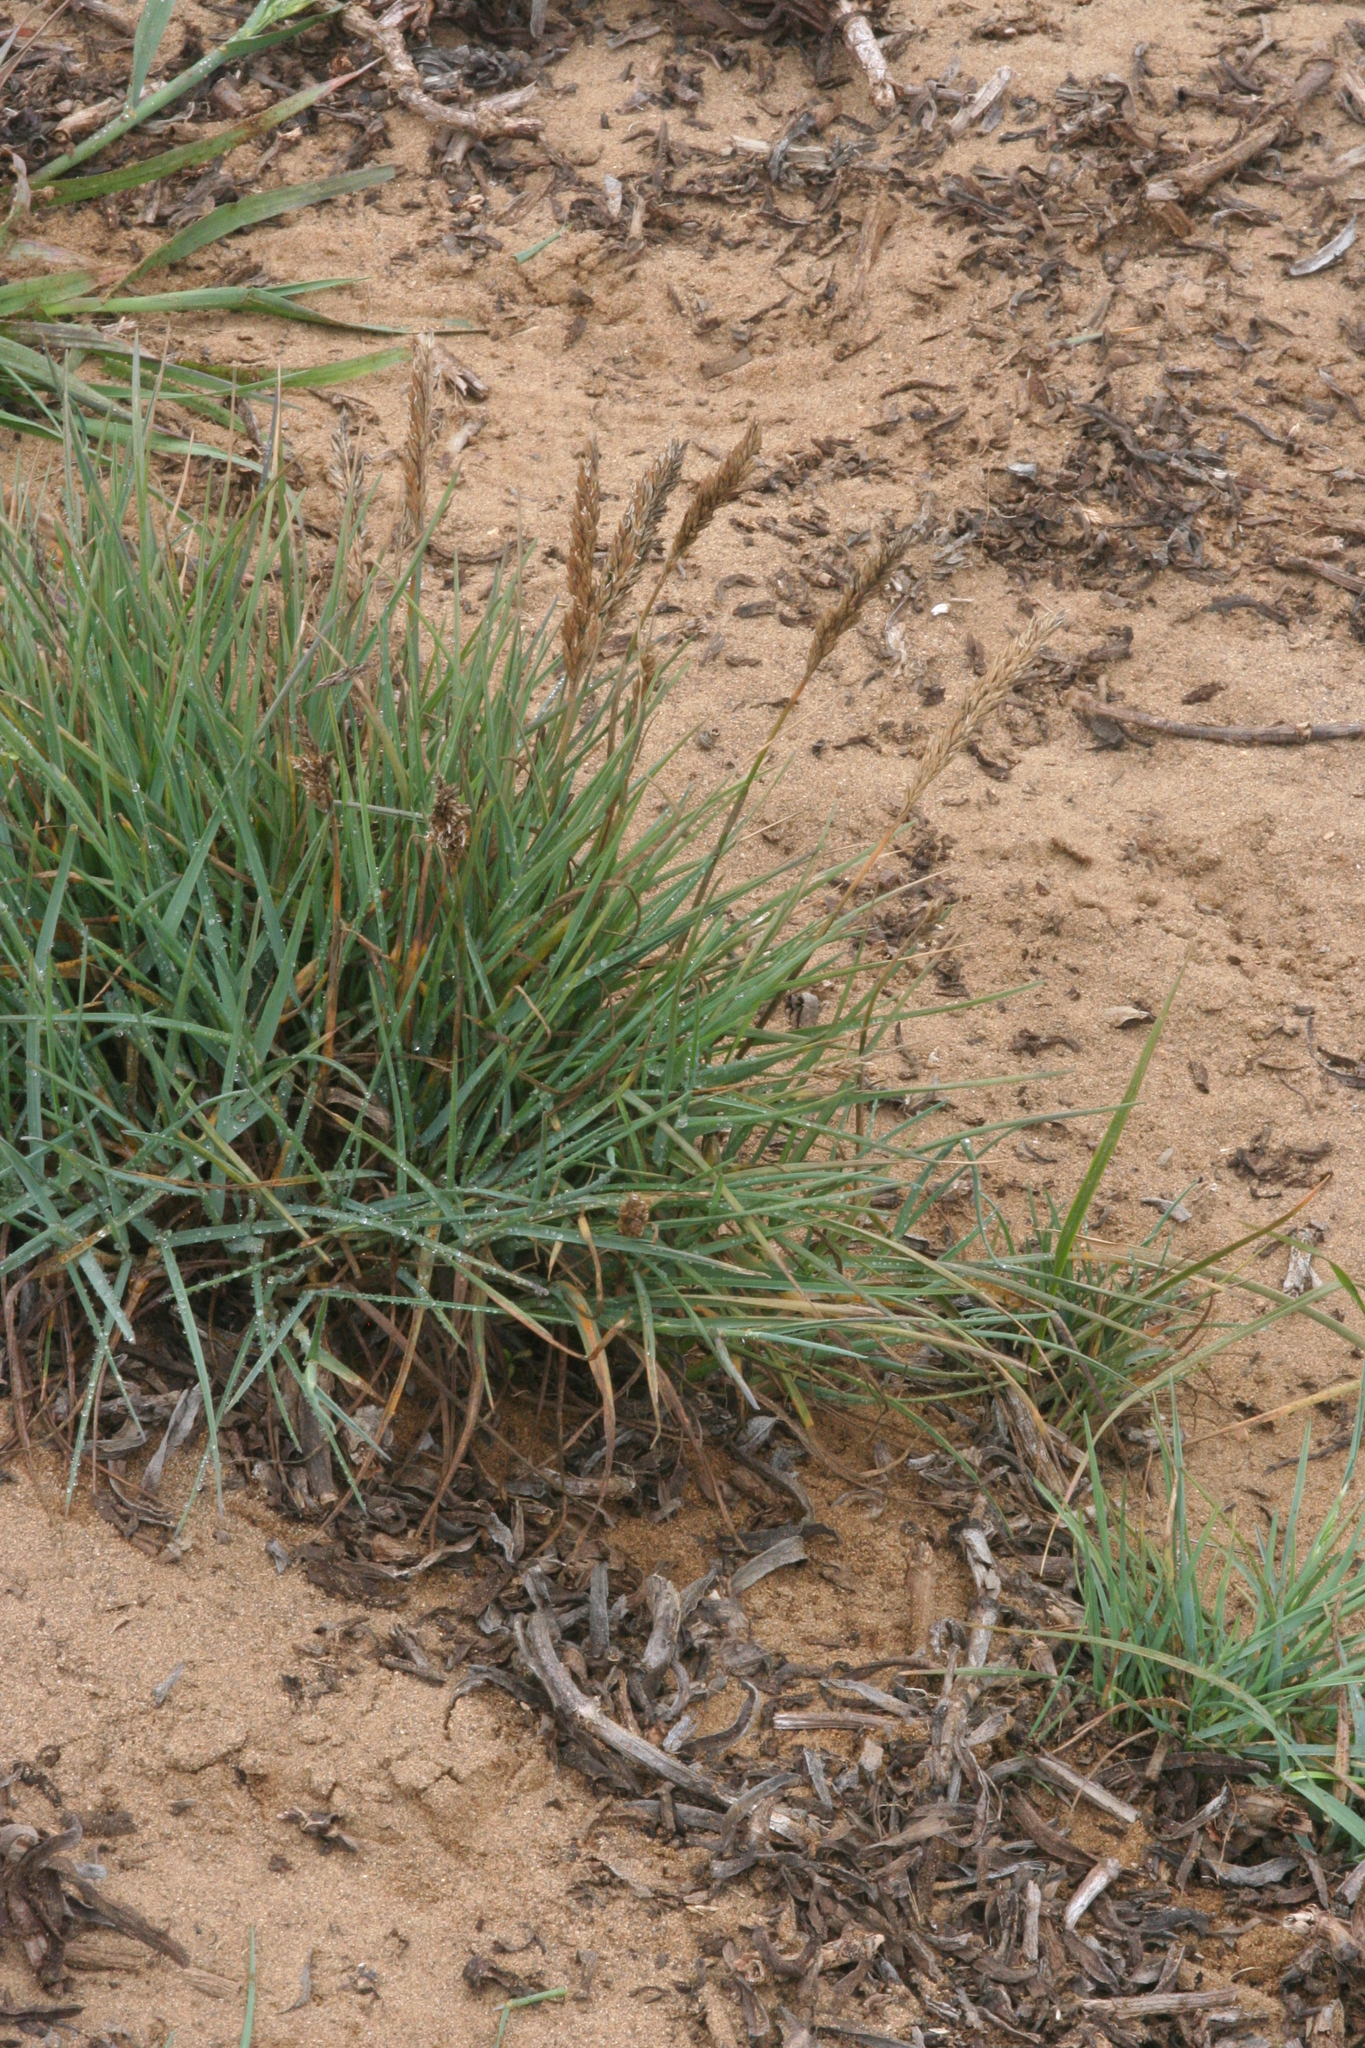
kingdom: Plantae
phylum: Tracheophyta
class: Liliopsida
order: Poales
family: Poaceae
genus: Poa
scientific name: Poa unilateralis
